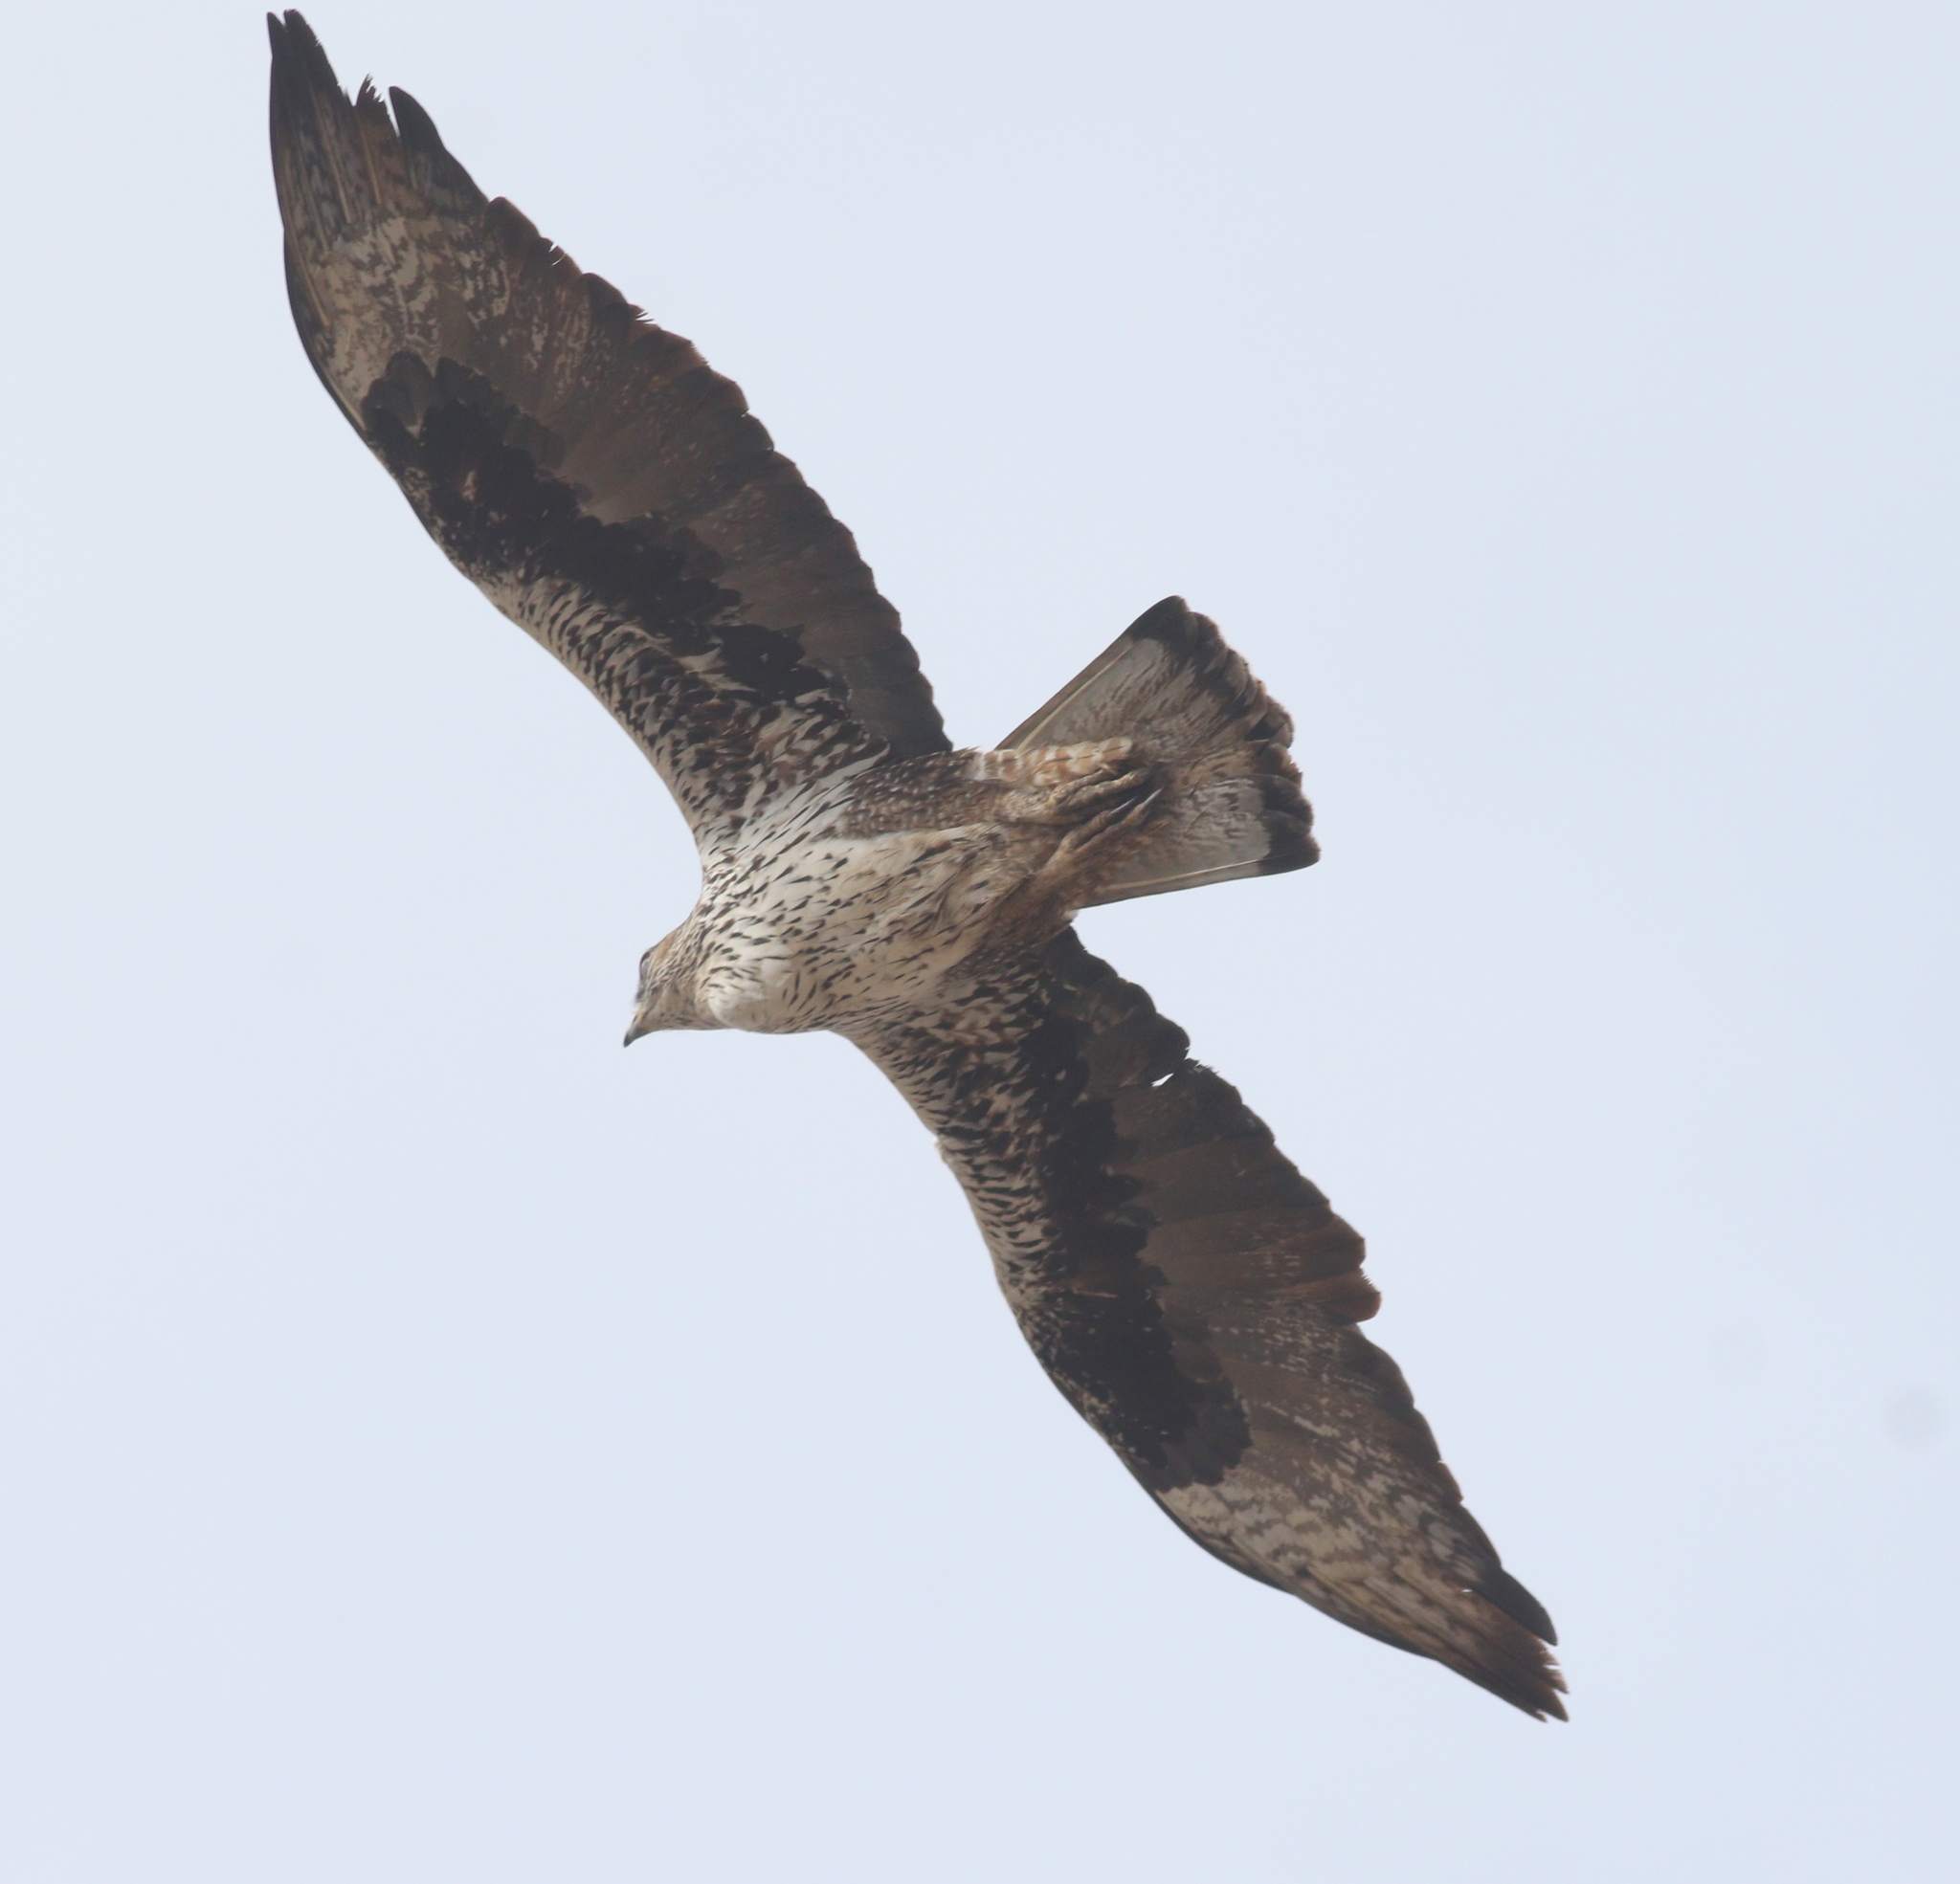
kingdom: Animalia
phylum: Chordata
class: Aves
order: Accipitriformes
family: Accipitridae
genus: Aquila
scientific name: Aquila fasciata
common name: Bonelli's eagle
